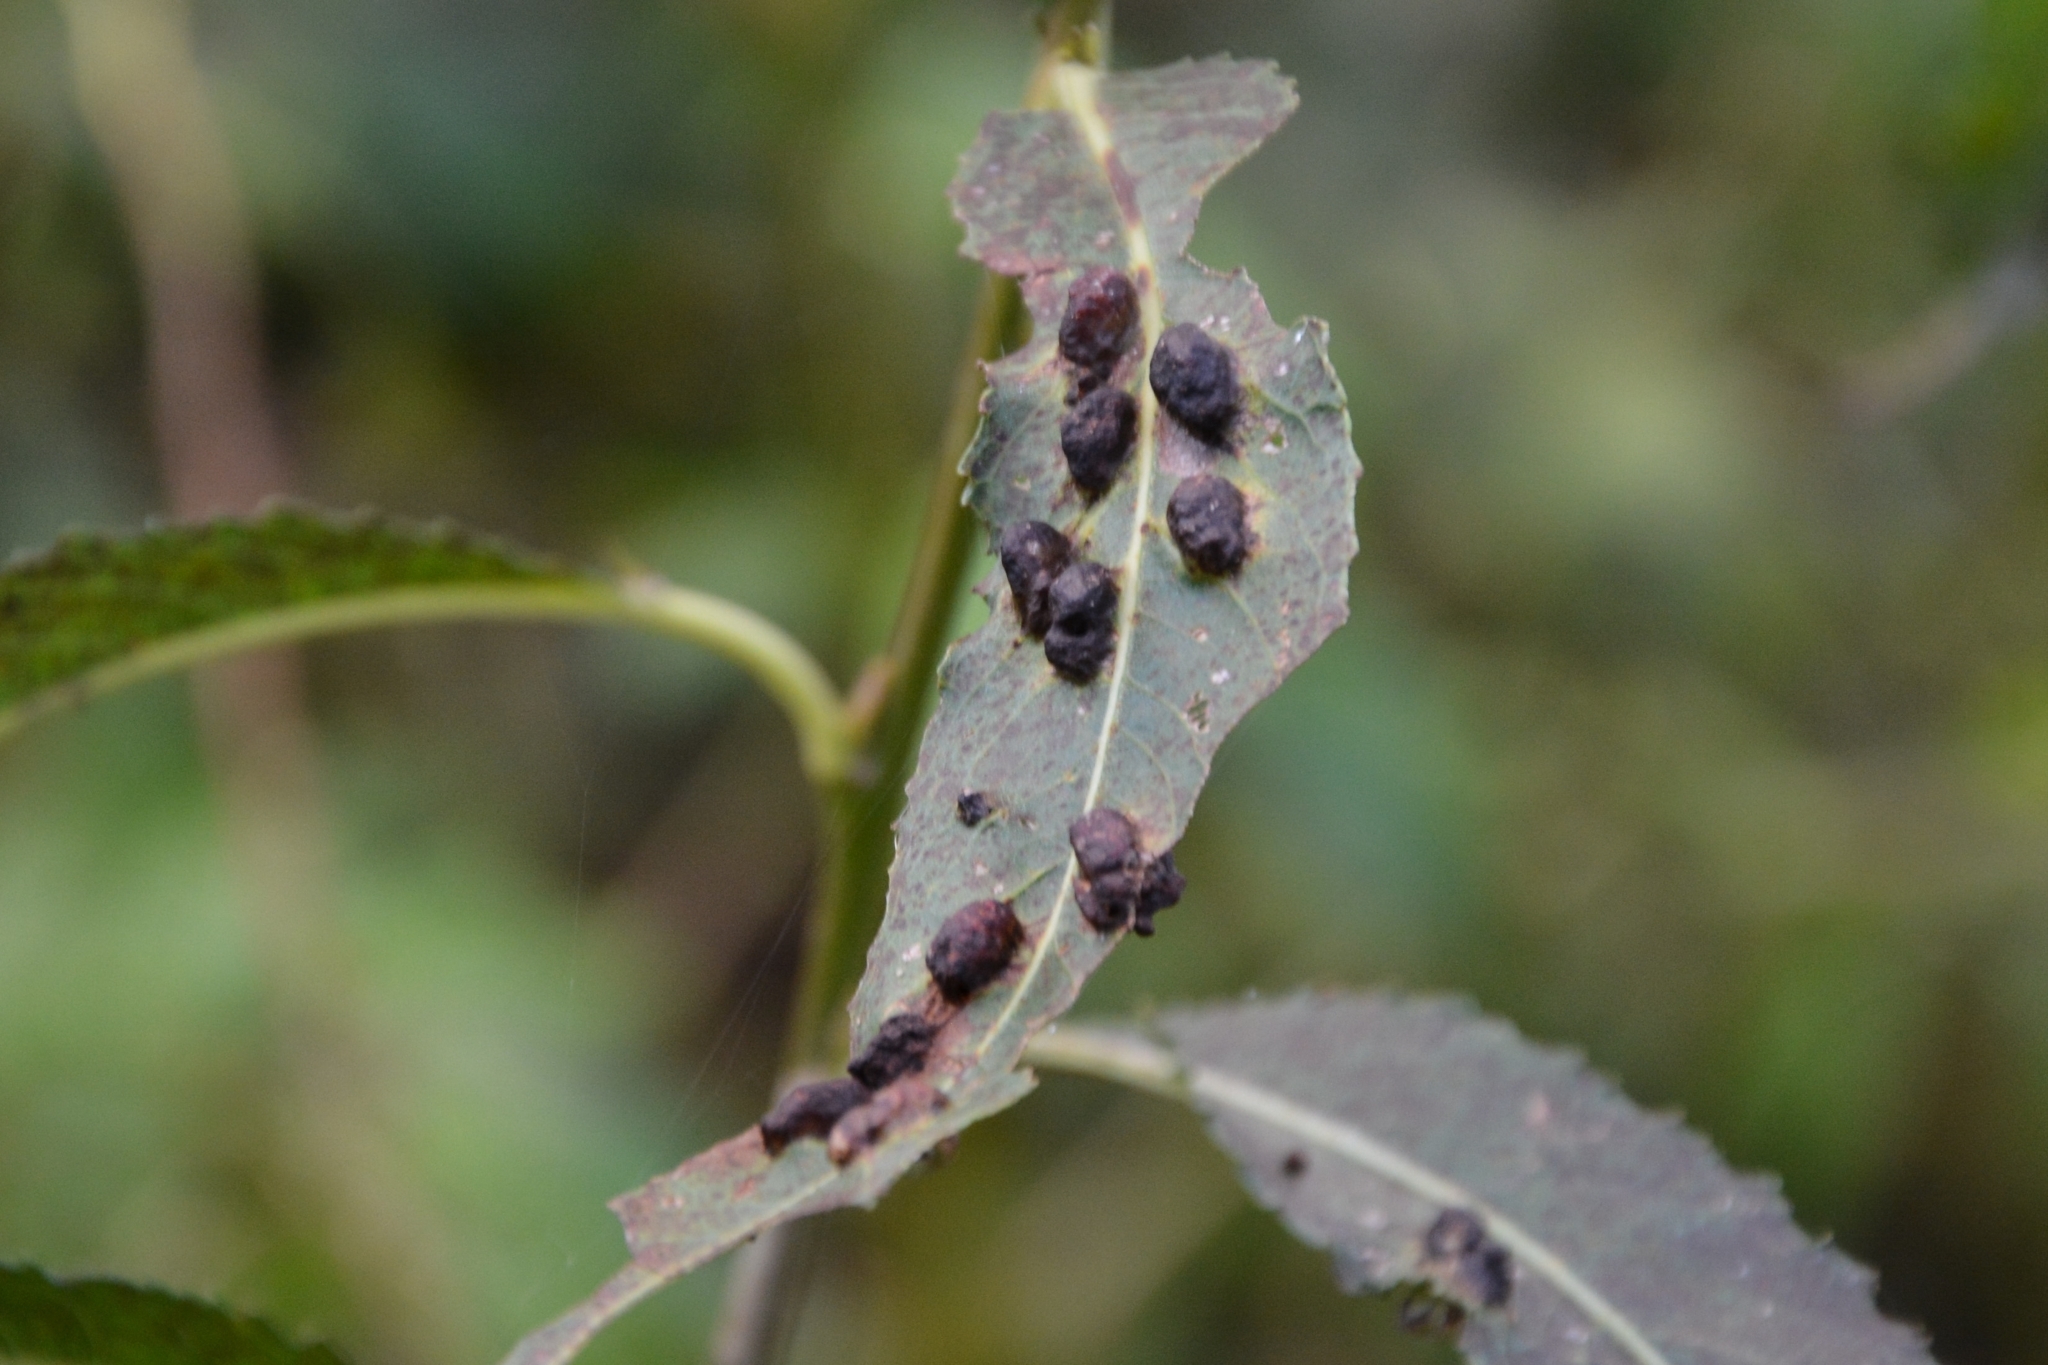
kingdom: Animalia
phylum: Arthropoda
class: Insecta
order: Hymenoptera
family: Tenthredinidae
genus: Pontania
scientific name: Pontania proxima
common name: Common sawfly
